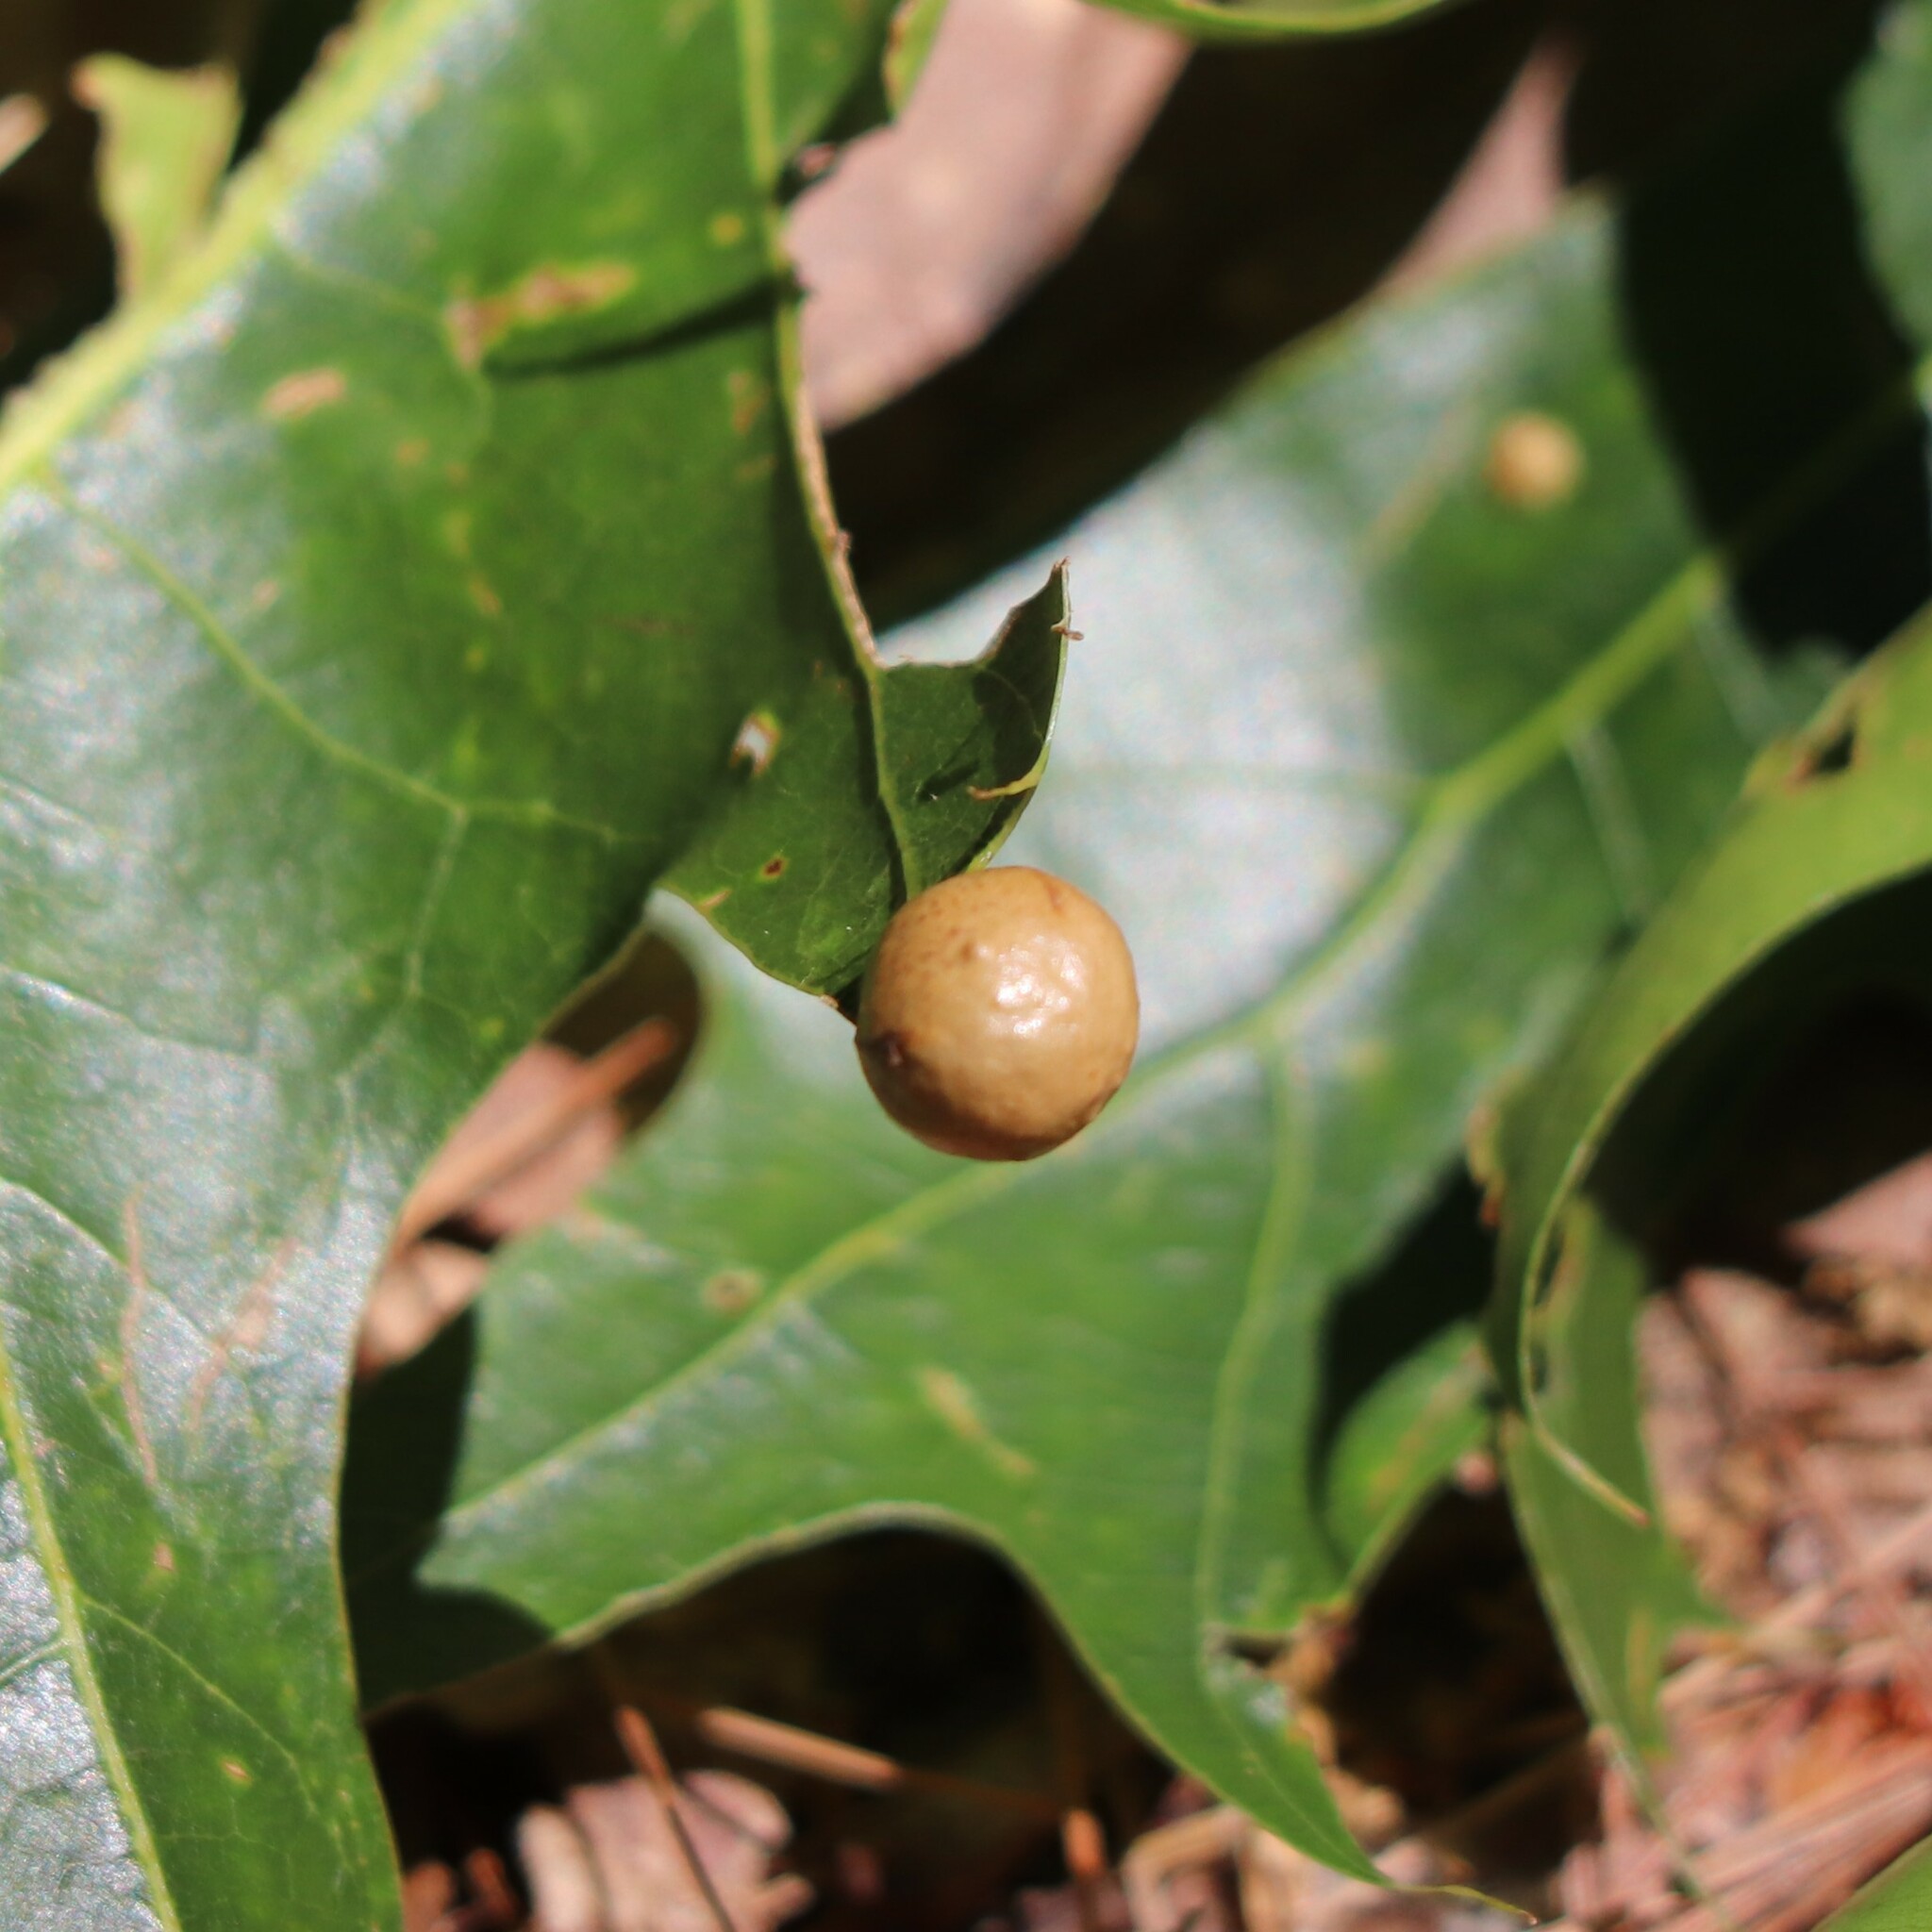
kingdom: Animalia
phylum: Arthropoda
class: Insecta
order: Hymenoptera
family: Cynipidae
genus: Amphibolips
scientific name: Amphibolips
